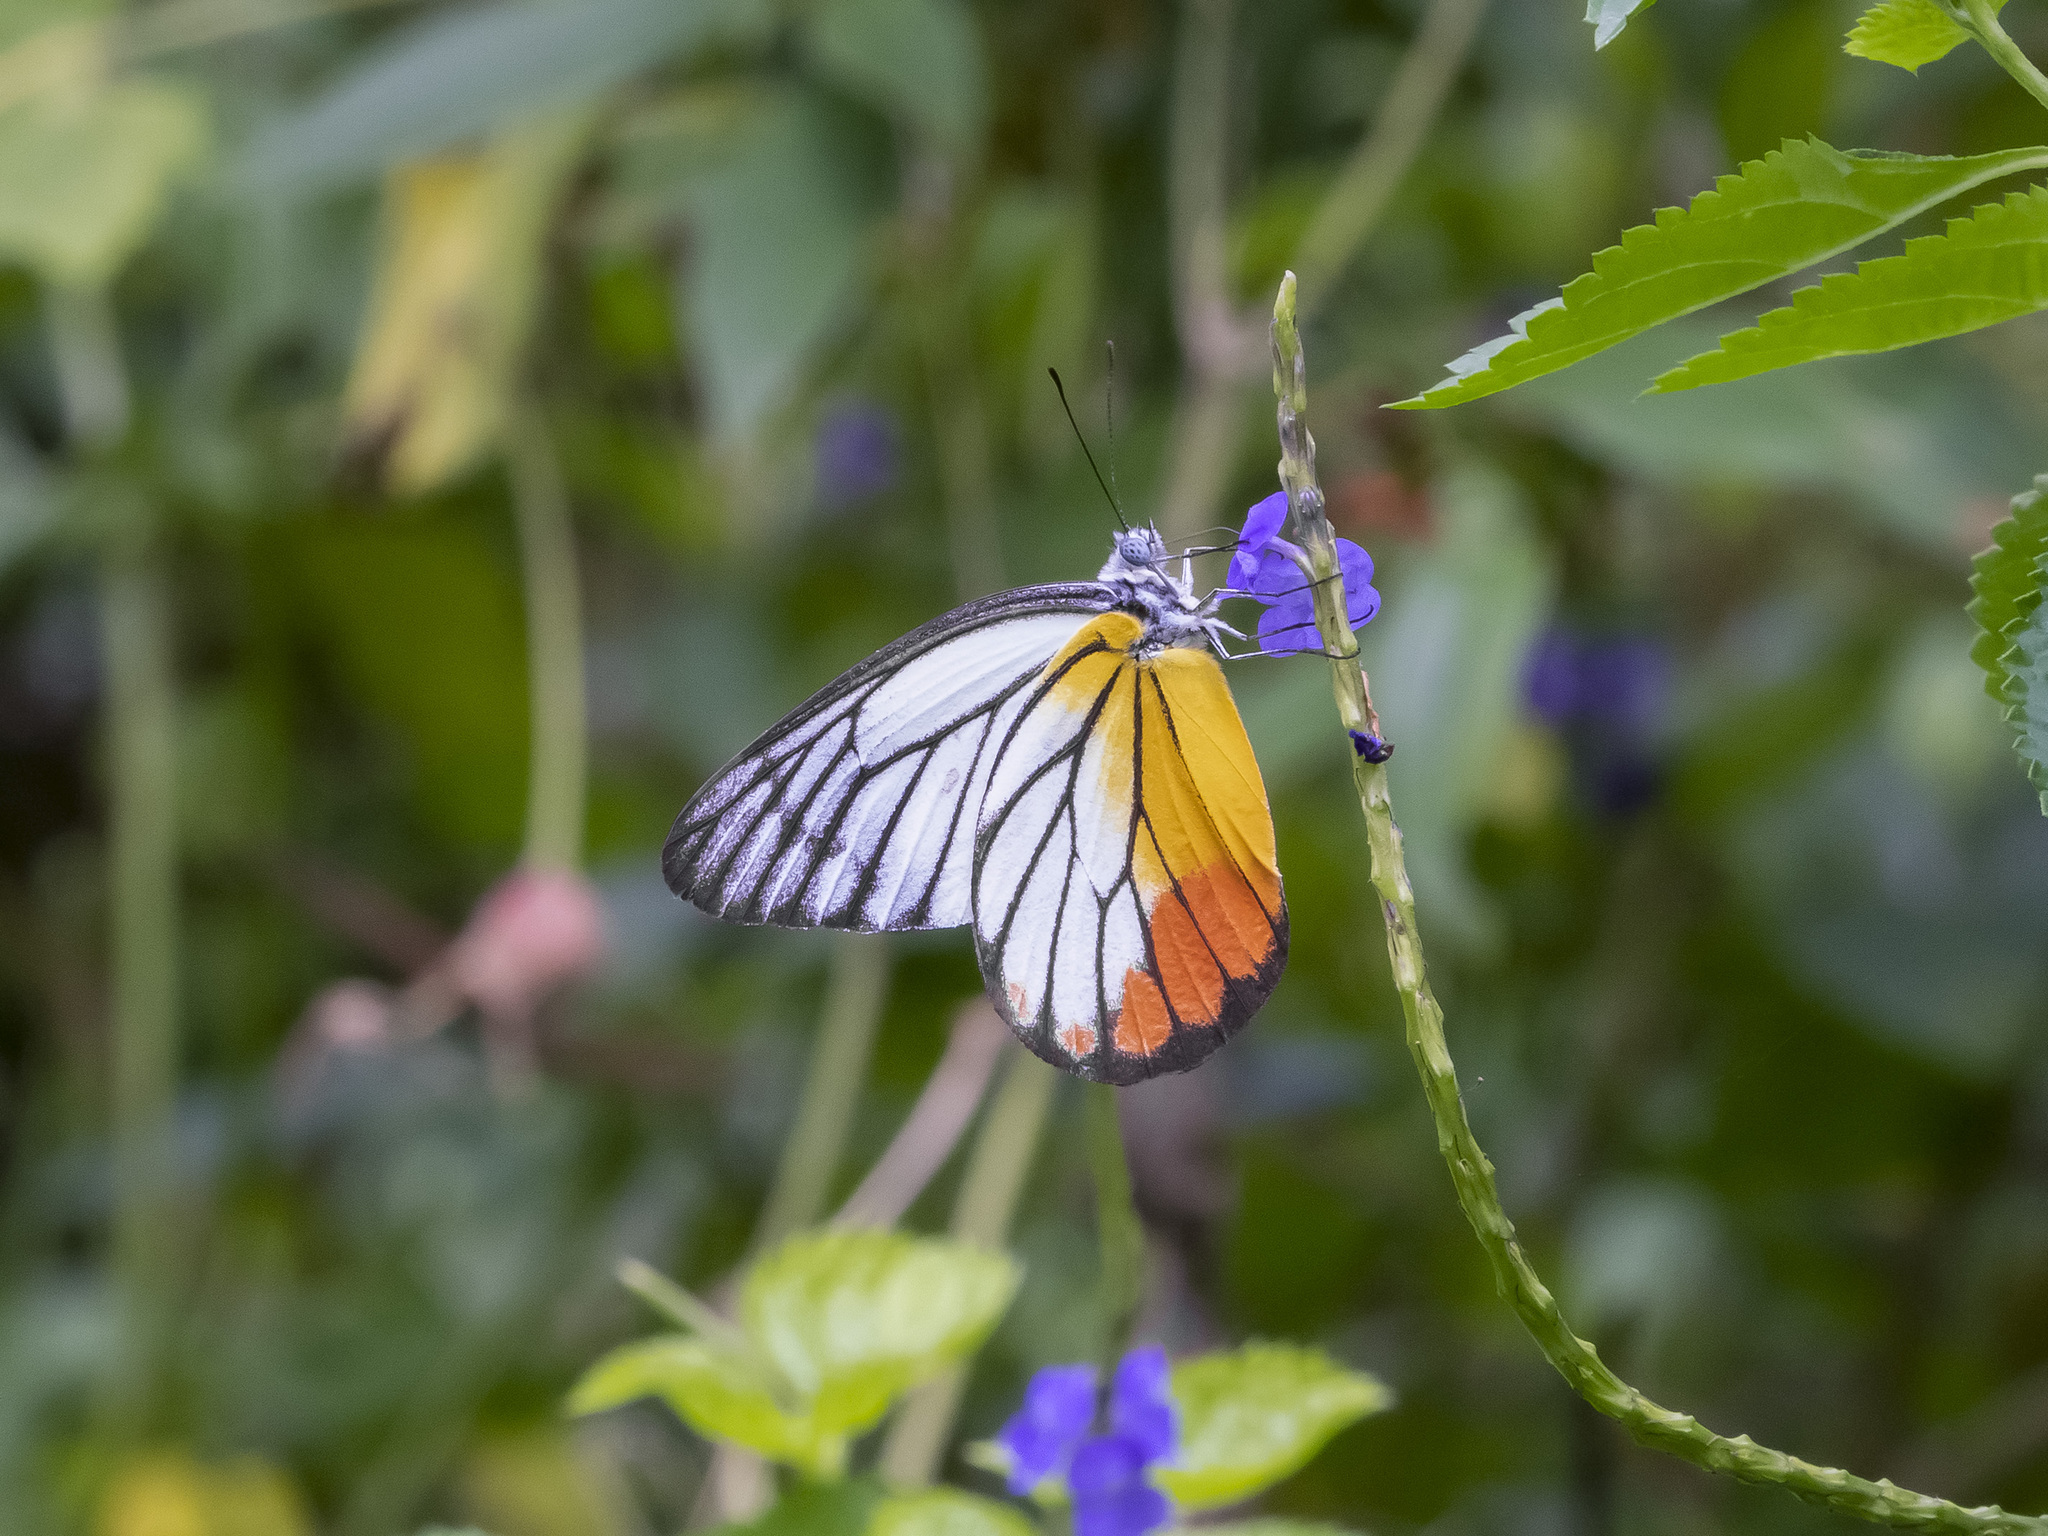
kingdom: Animalia
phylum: Arthropoda
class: Insecta
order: Lepidoptera
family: Pieridae
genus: Delias
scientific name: Delias hyparete
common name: Painted jezebel
